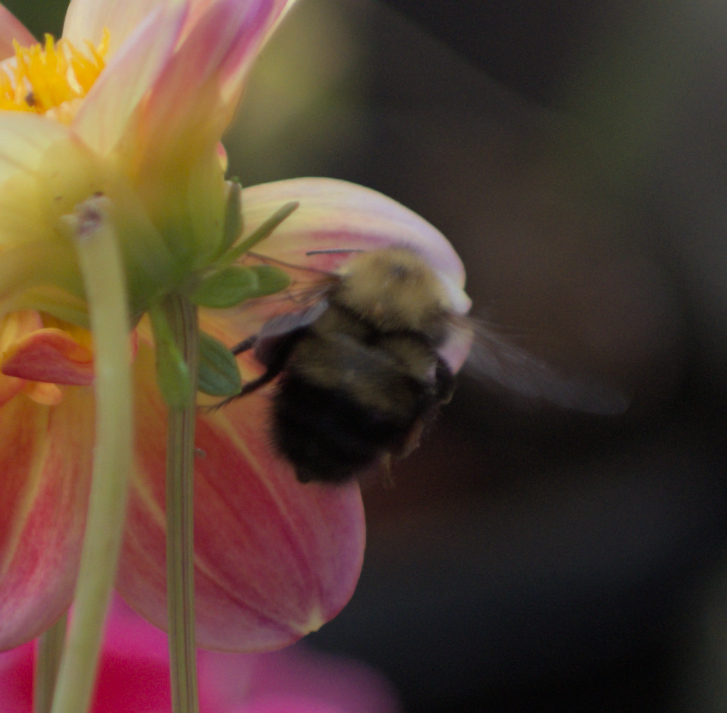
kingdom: Animalia
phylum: Arthropoda
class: Insecta
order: Hymenoptera
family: Apidae
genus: Bombus
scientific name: Bombus perplexus
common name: Confusing bumble bee
